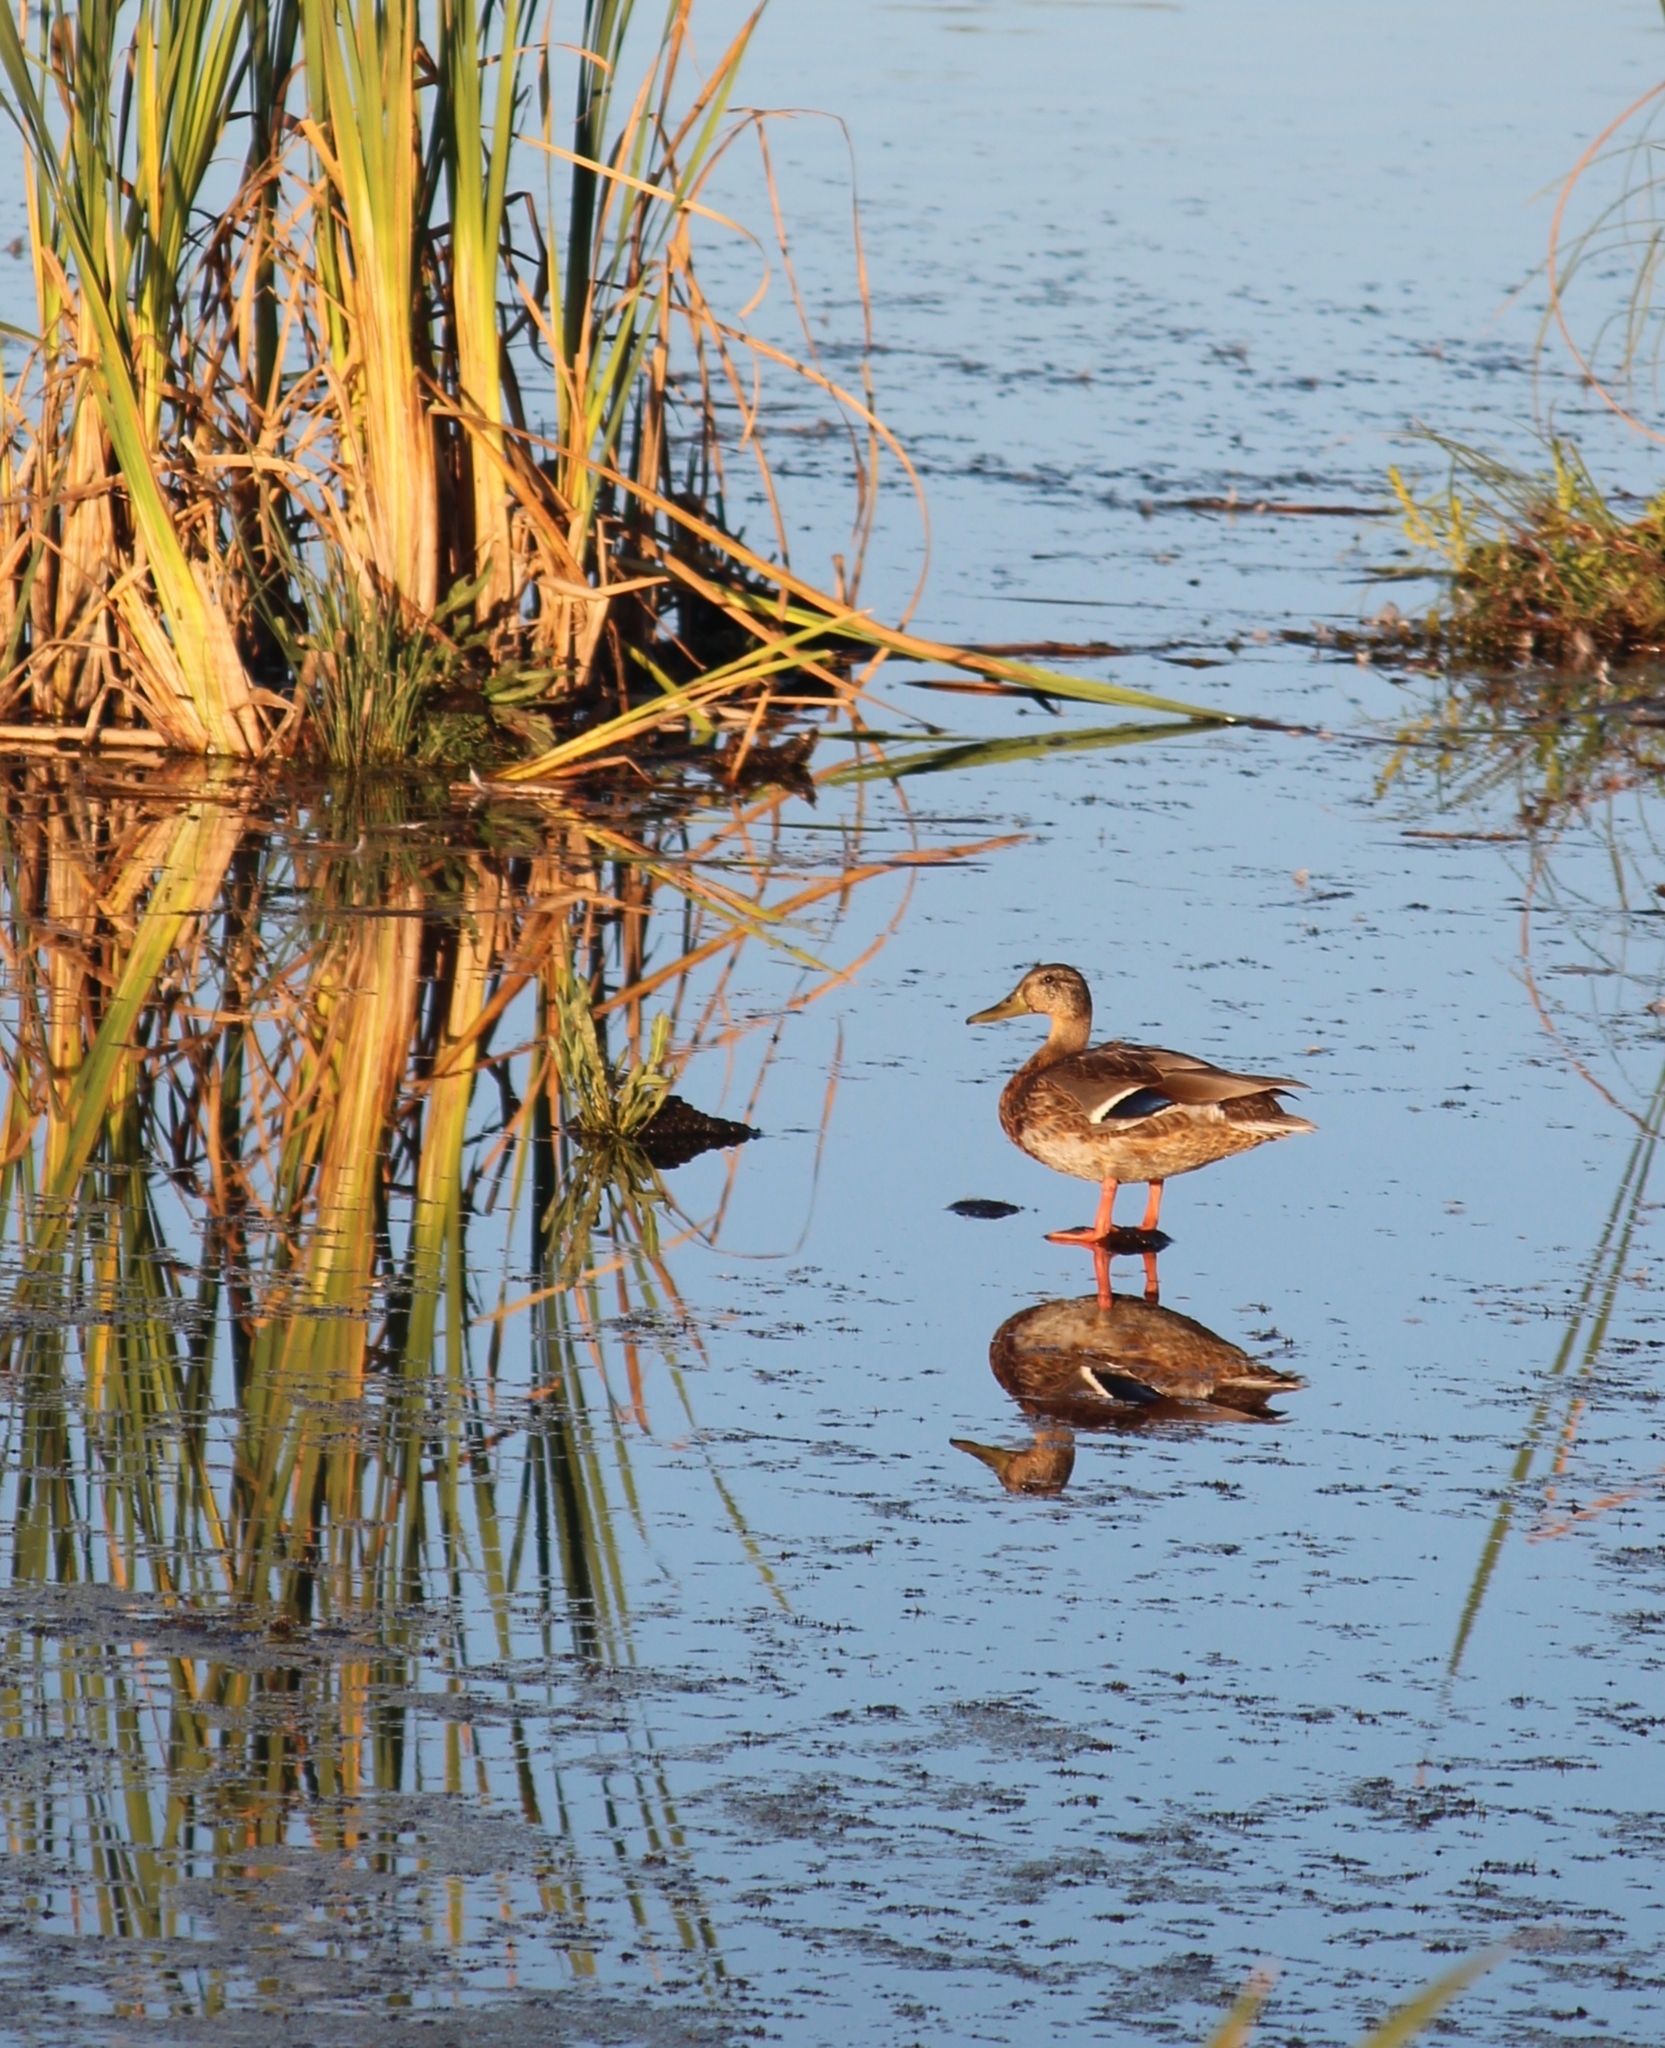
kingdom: Animalia
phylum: Chordata
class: Aves
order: Anseriformes
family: Anatidae
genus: Anas
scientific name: Anas platyrhynchos
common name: Mallard
